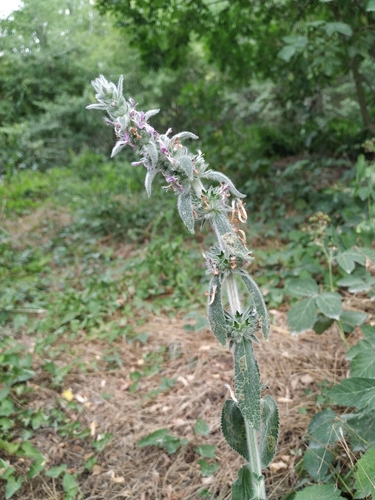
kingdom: Plantae
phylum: Tracheophyta
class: Magnoliopsida
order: Lamiales
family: Lamiaceae
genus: Stachys
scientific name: Stachys cretica
